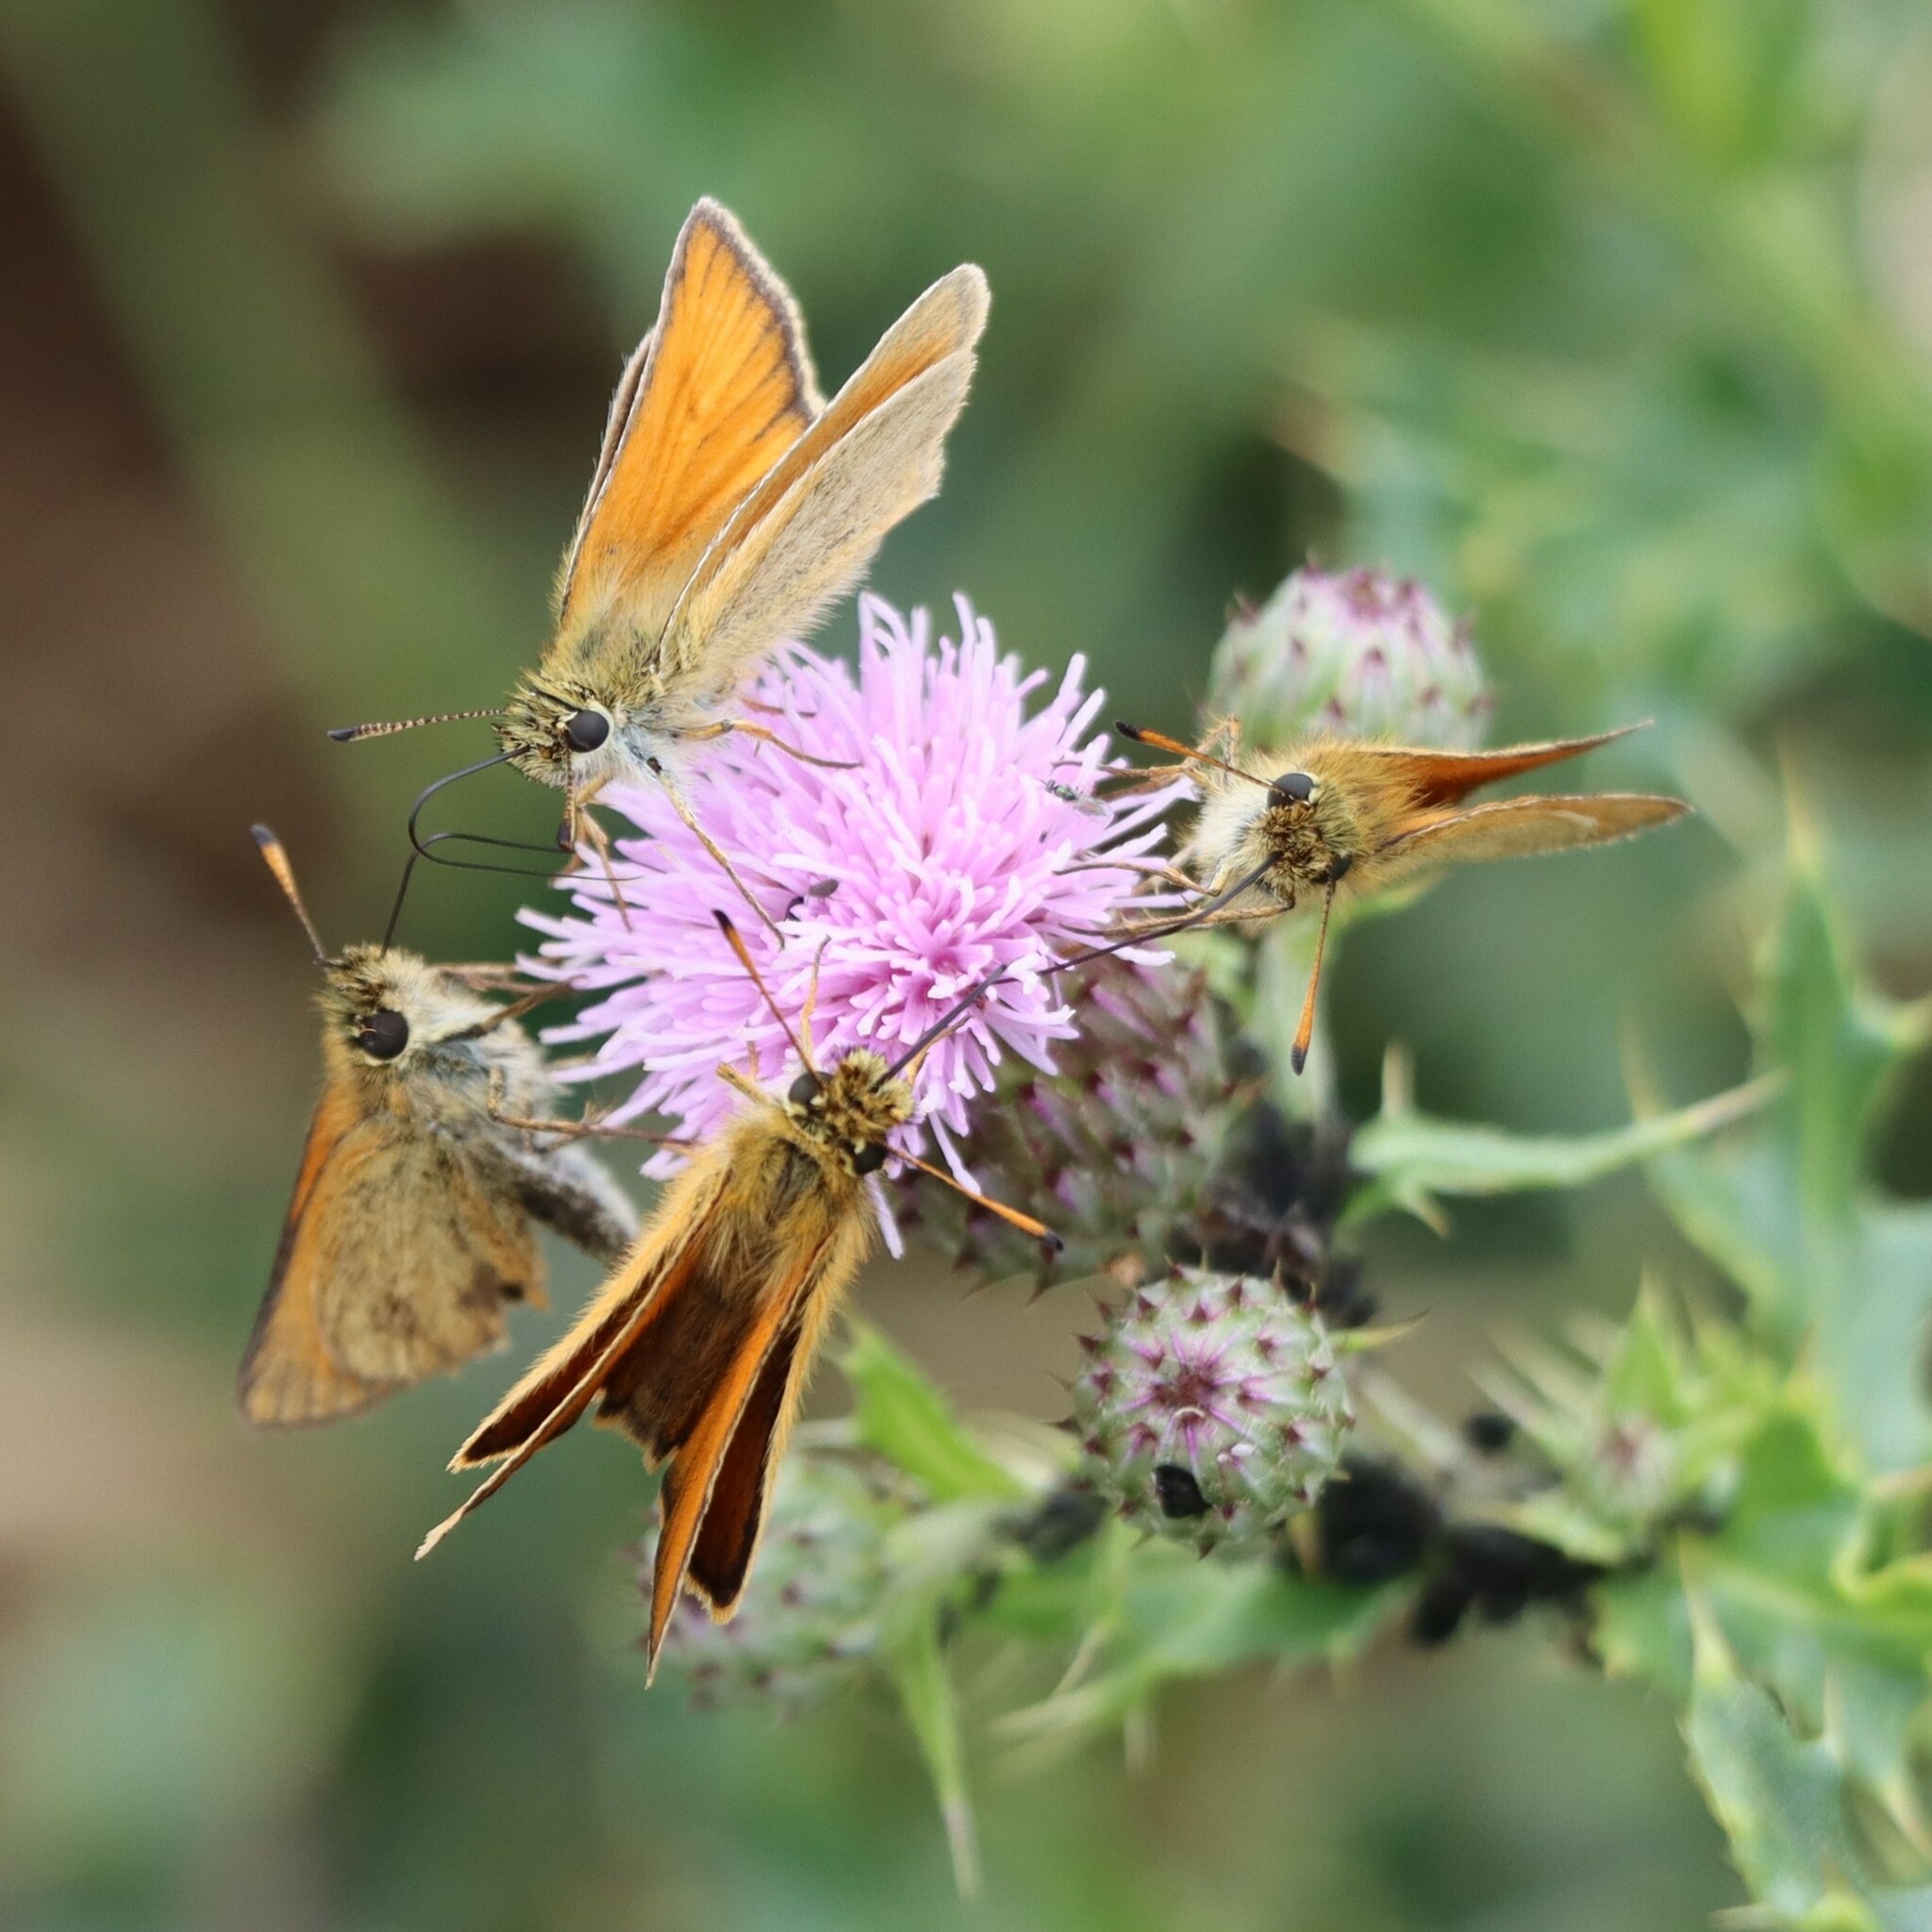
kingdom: Animalia
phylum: Arthropoda
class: Insecta
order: Lepidoptera
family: Hesperiidae
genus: Thymelicus
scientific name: Thymelicus lineola
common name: Essex skipper
